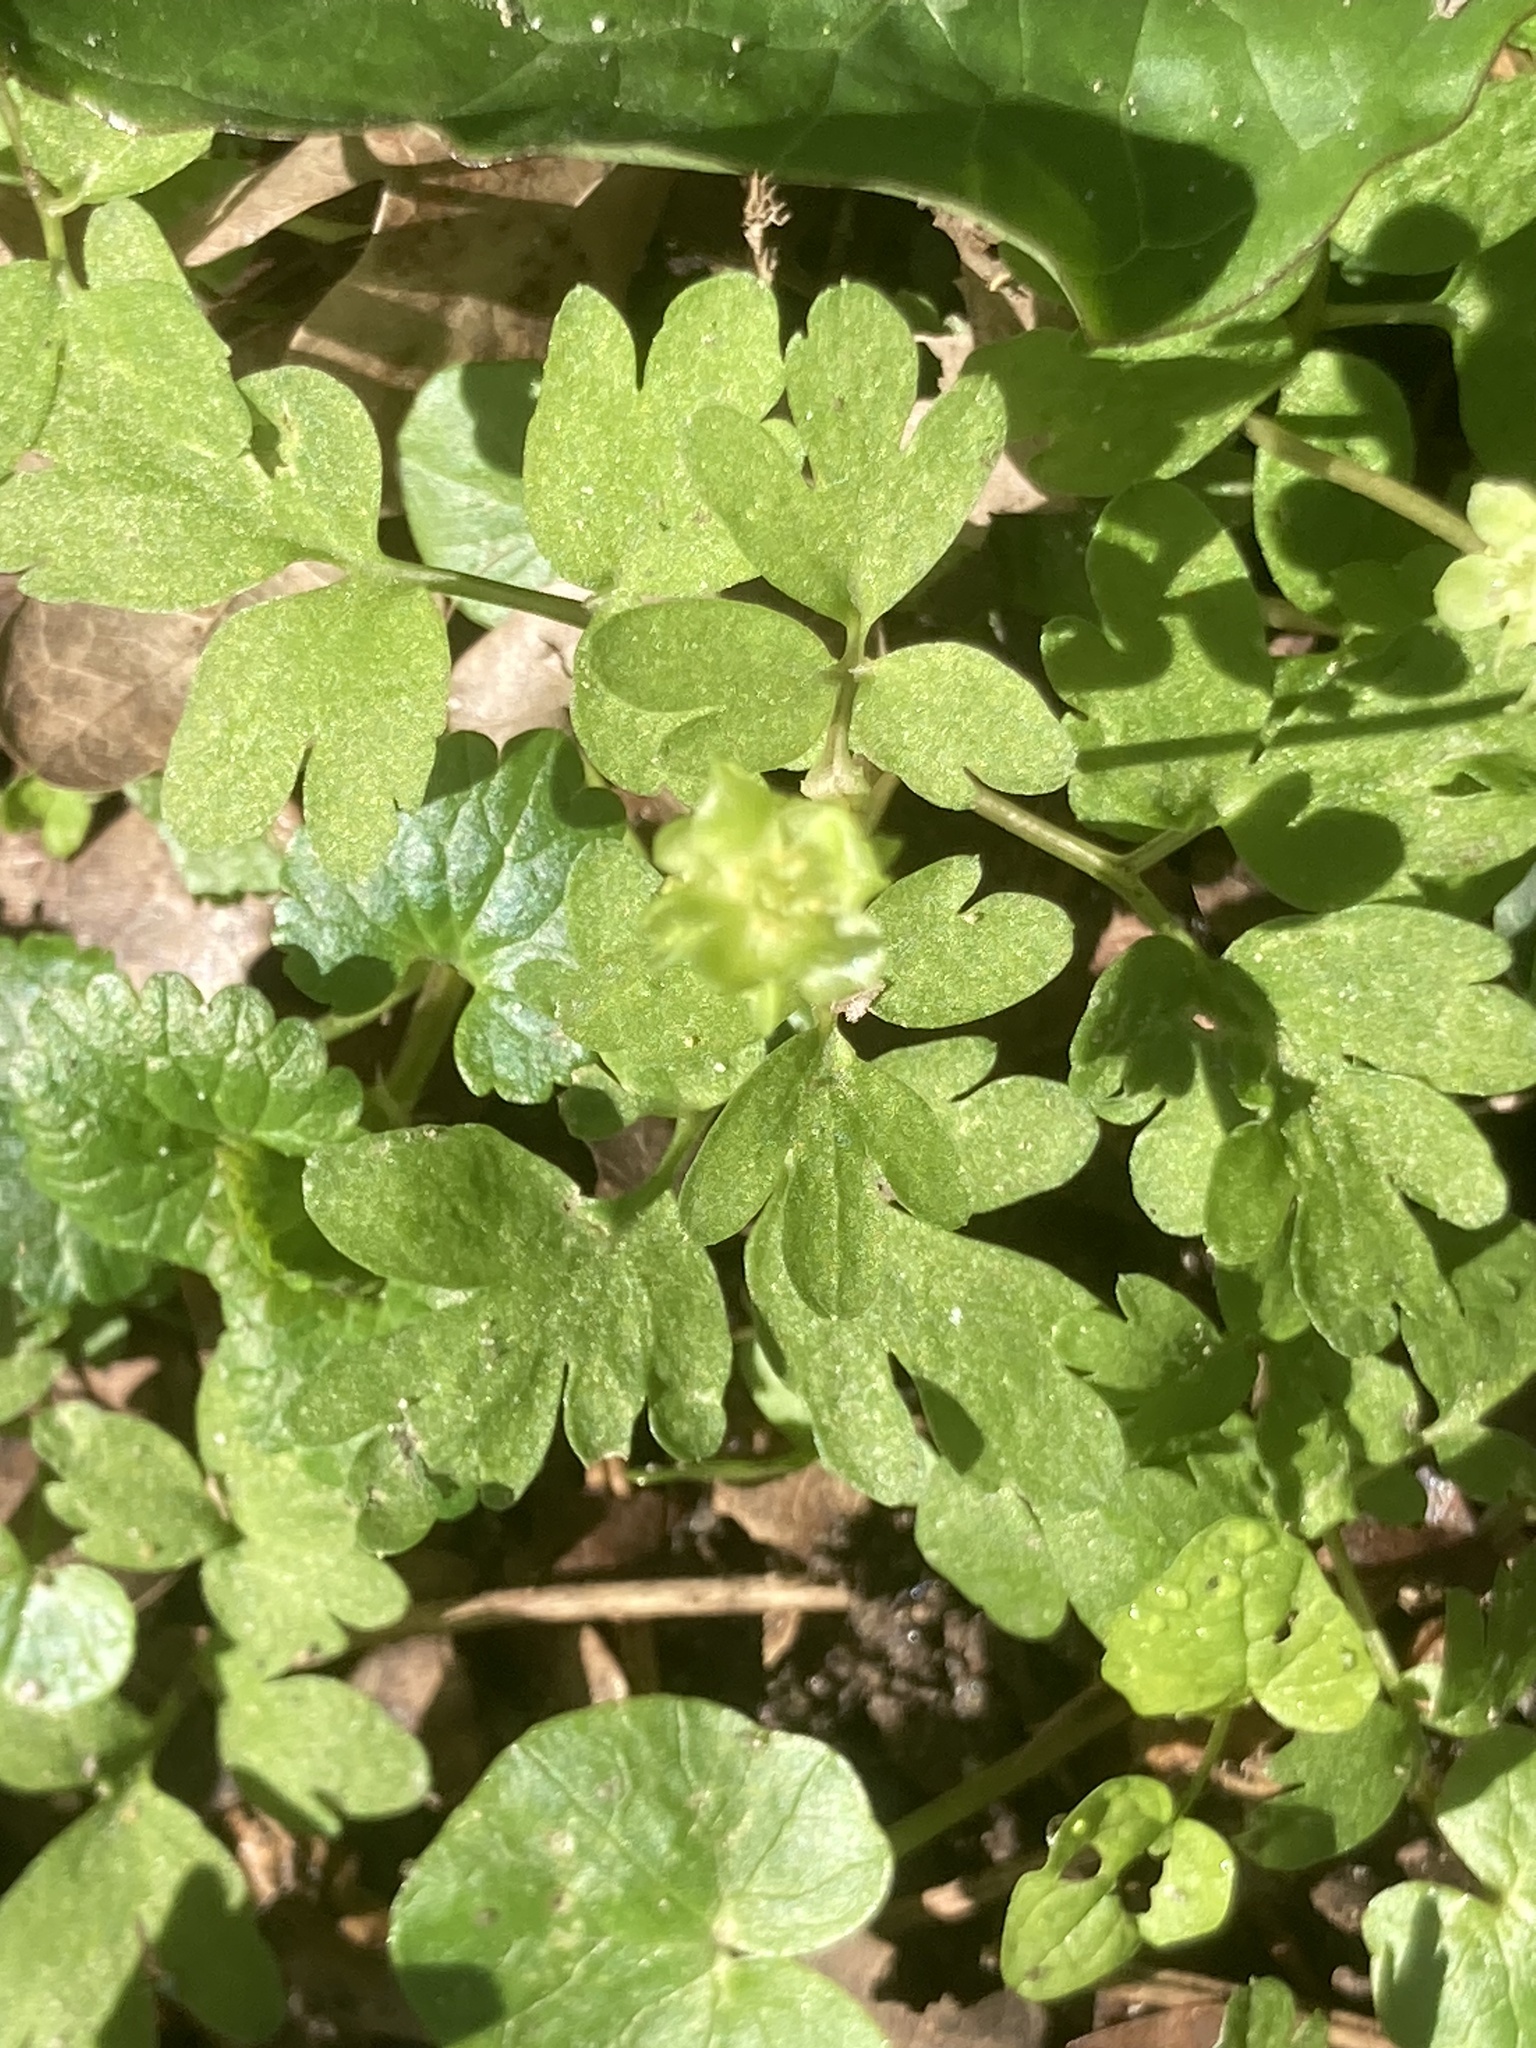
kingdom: Plantae
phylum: Tracheophyta
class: Magnoliopsida
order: Dipsacales
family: Viburnaceae
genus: Adoxa
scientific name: Adoxa moschatellina
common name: Moschatel
